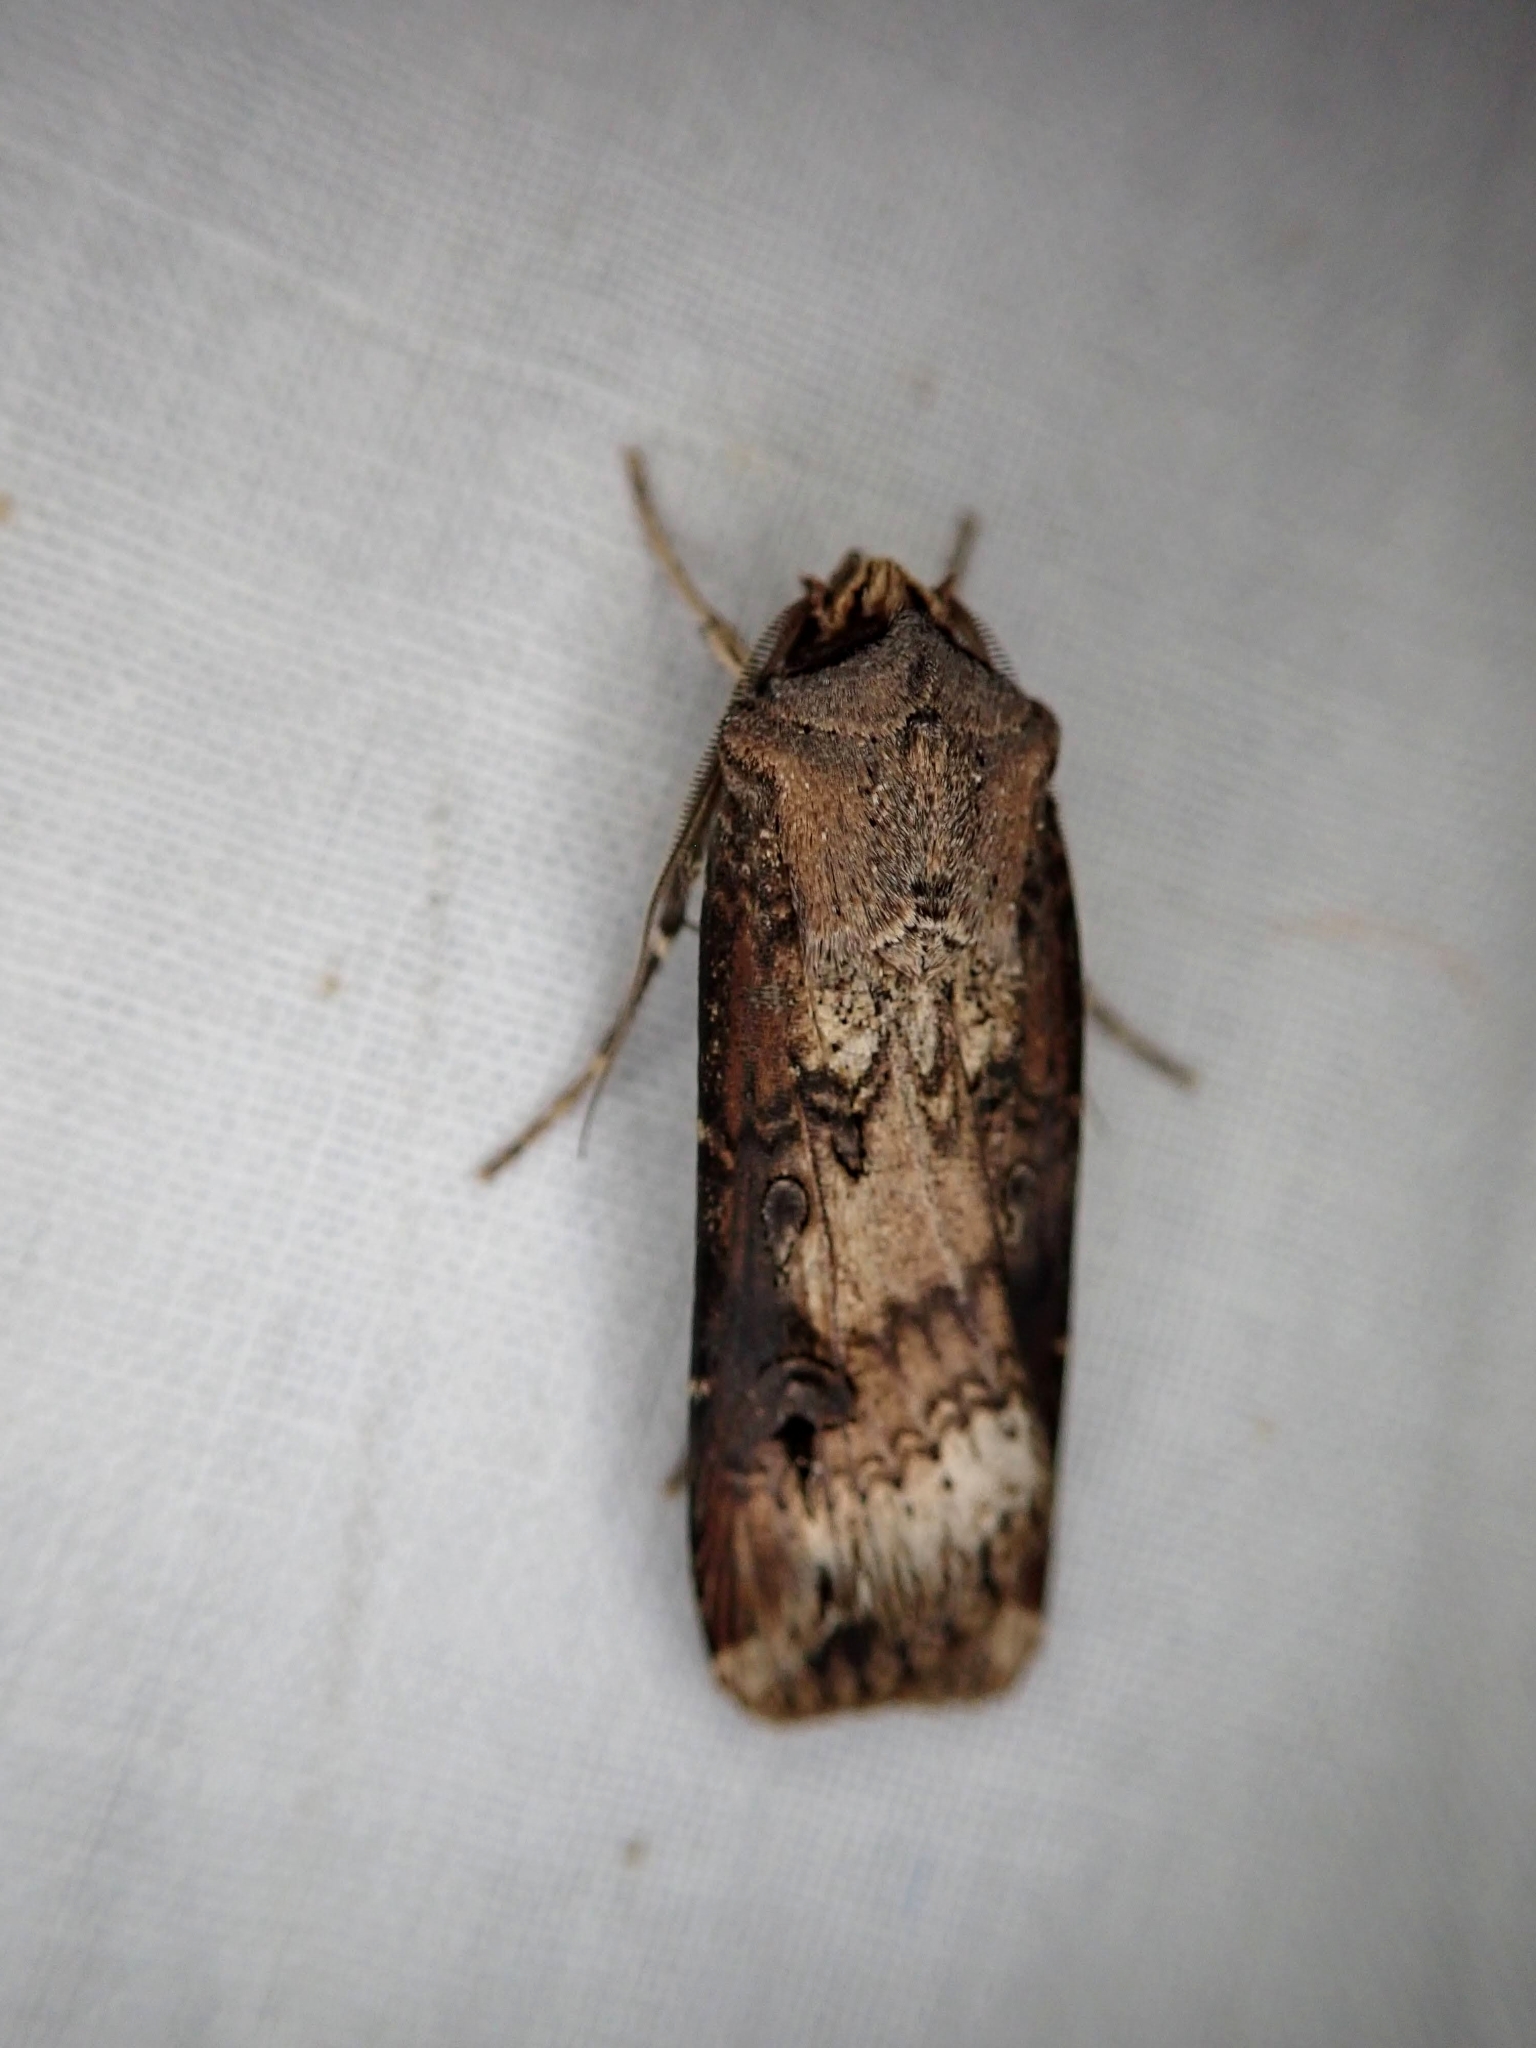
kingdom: Animalia
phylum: Arthropoda
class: Insecta
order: Lepidoptera
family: Noctuidae
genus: Agrotis
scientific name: Agrotis ipsilon
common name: Dark sword-grass
